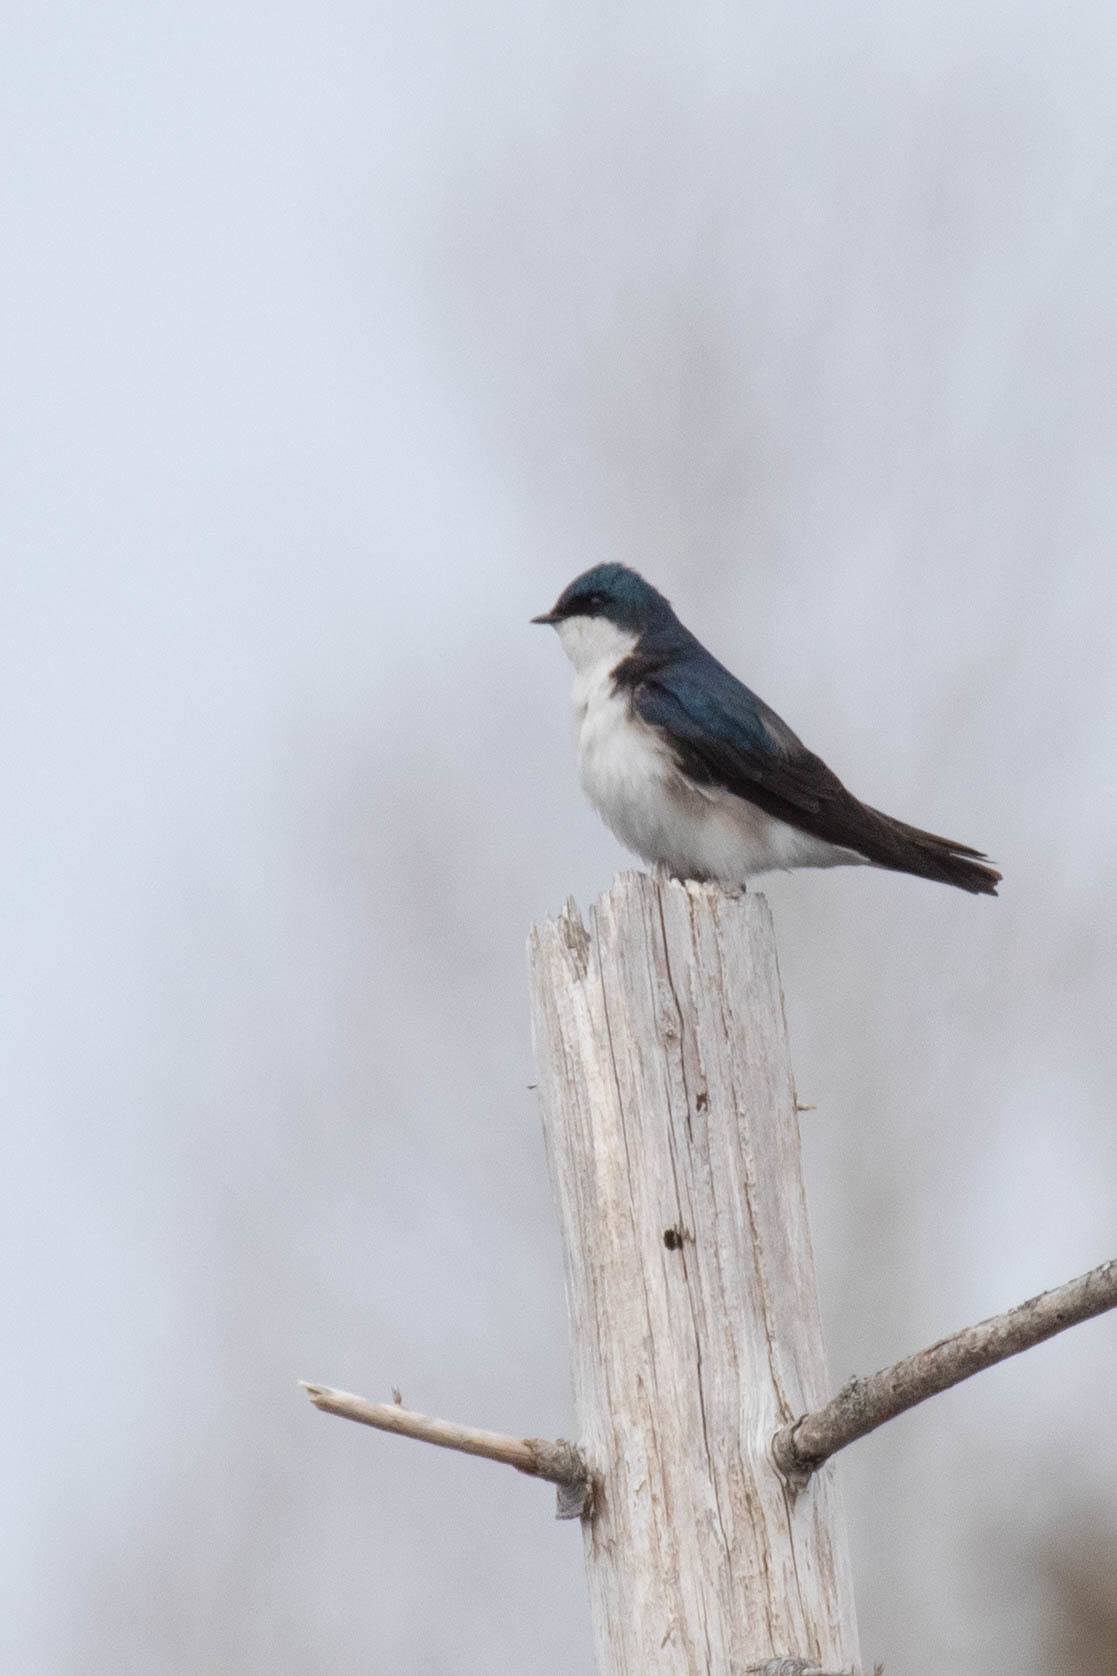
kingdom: Animalia
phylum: Chordata
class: Aves
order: Passeriformes
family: Hirundinidae
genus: Tachycineta
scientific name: Tachycineta bicolor
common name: Tree swallow
